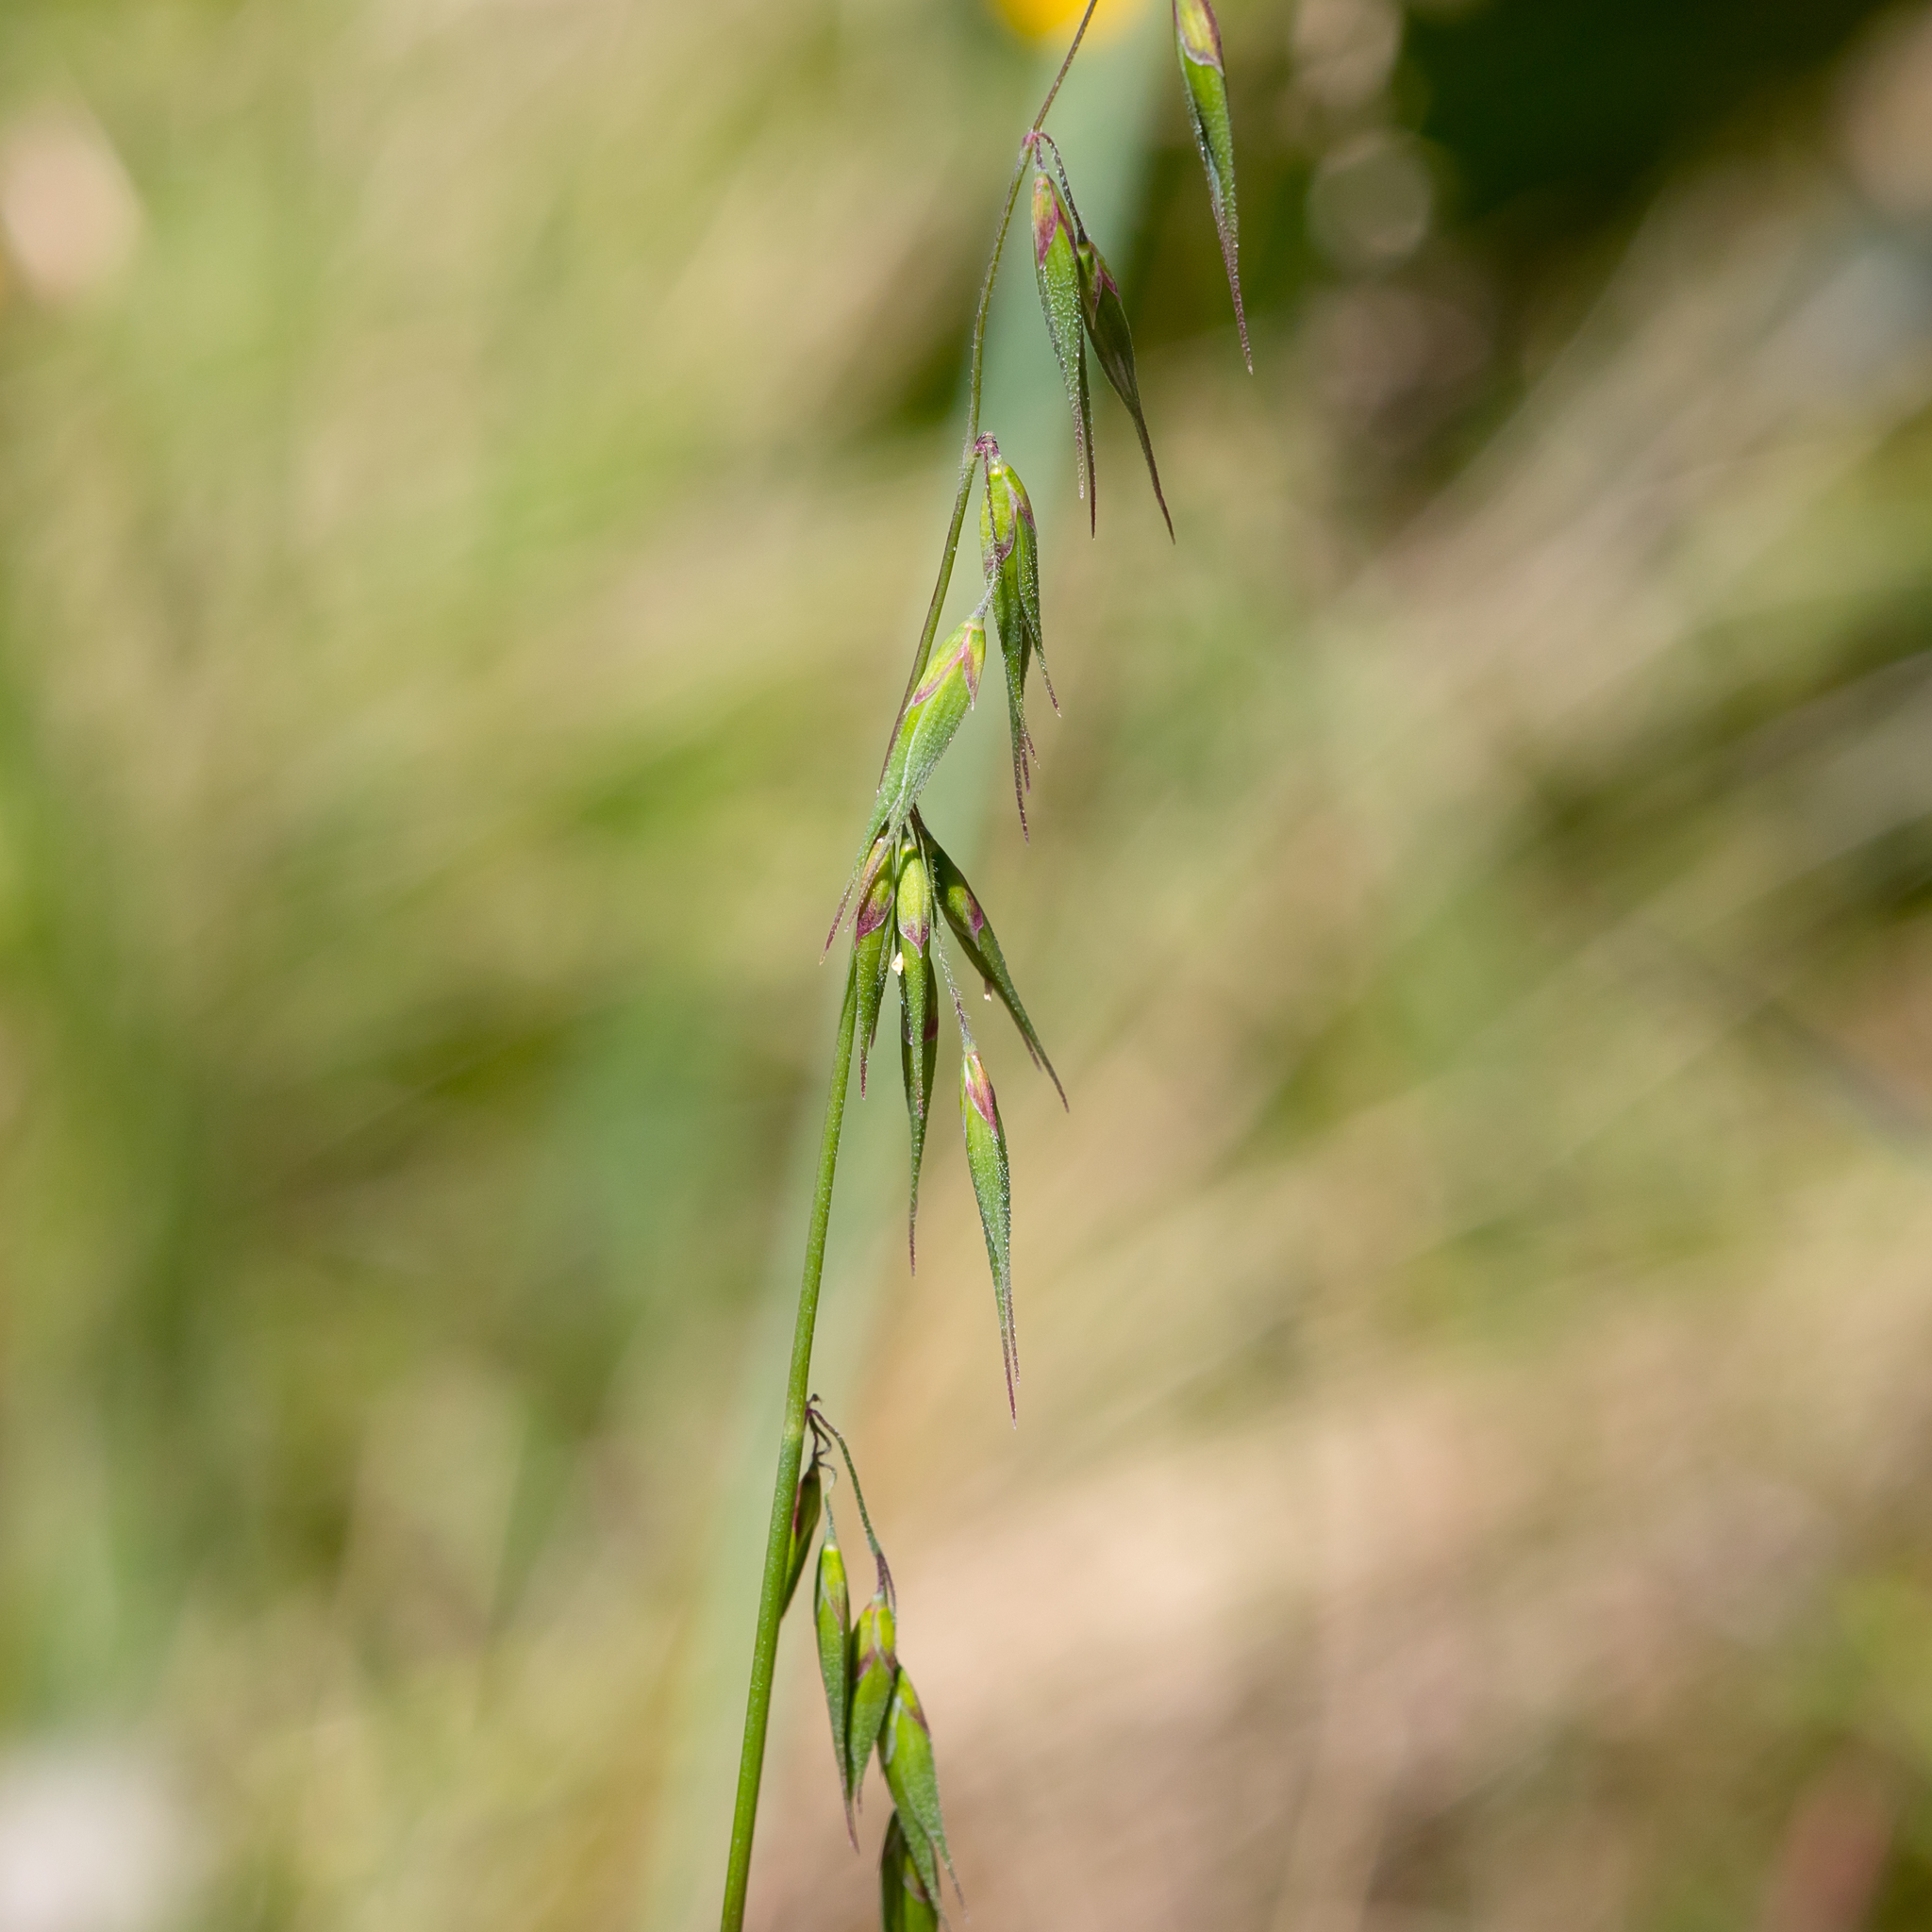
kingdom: Plantae
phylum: Tracheophyta
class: Liliopsida
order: Poales
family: Poaceae
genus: Ehrharta
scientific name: Ehrharta longiflora
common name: Longflowered veldtgrass
